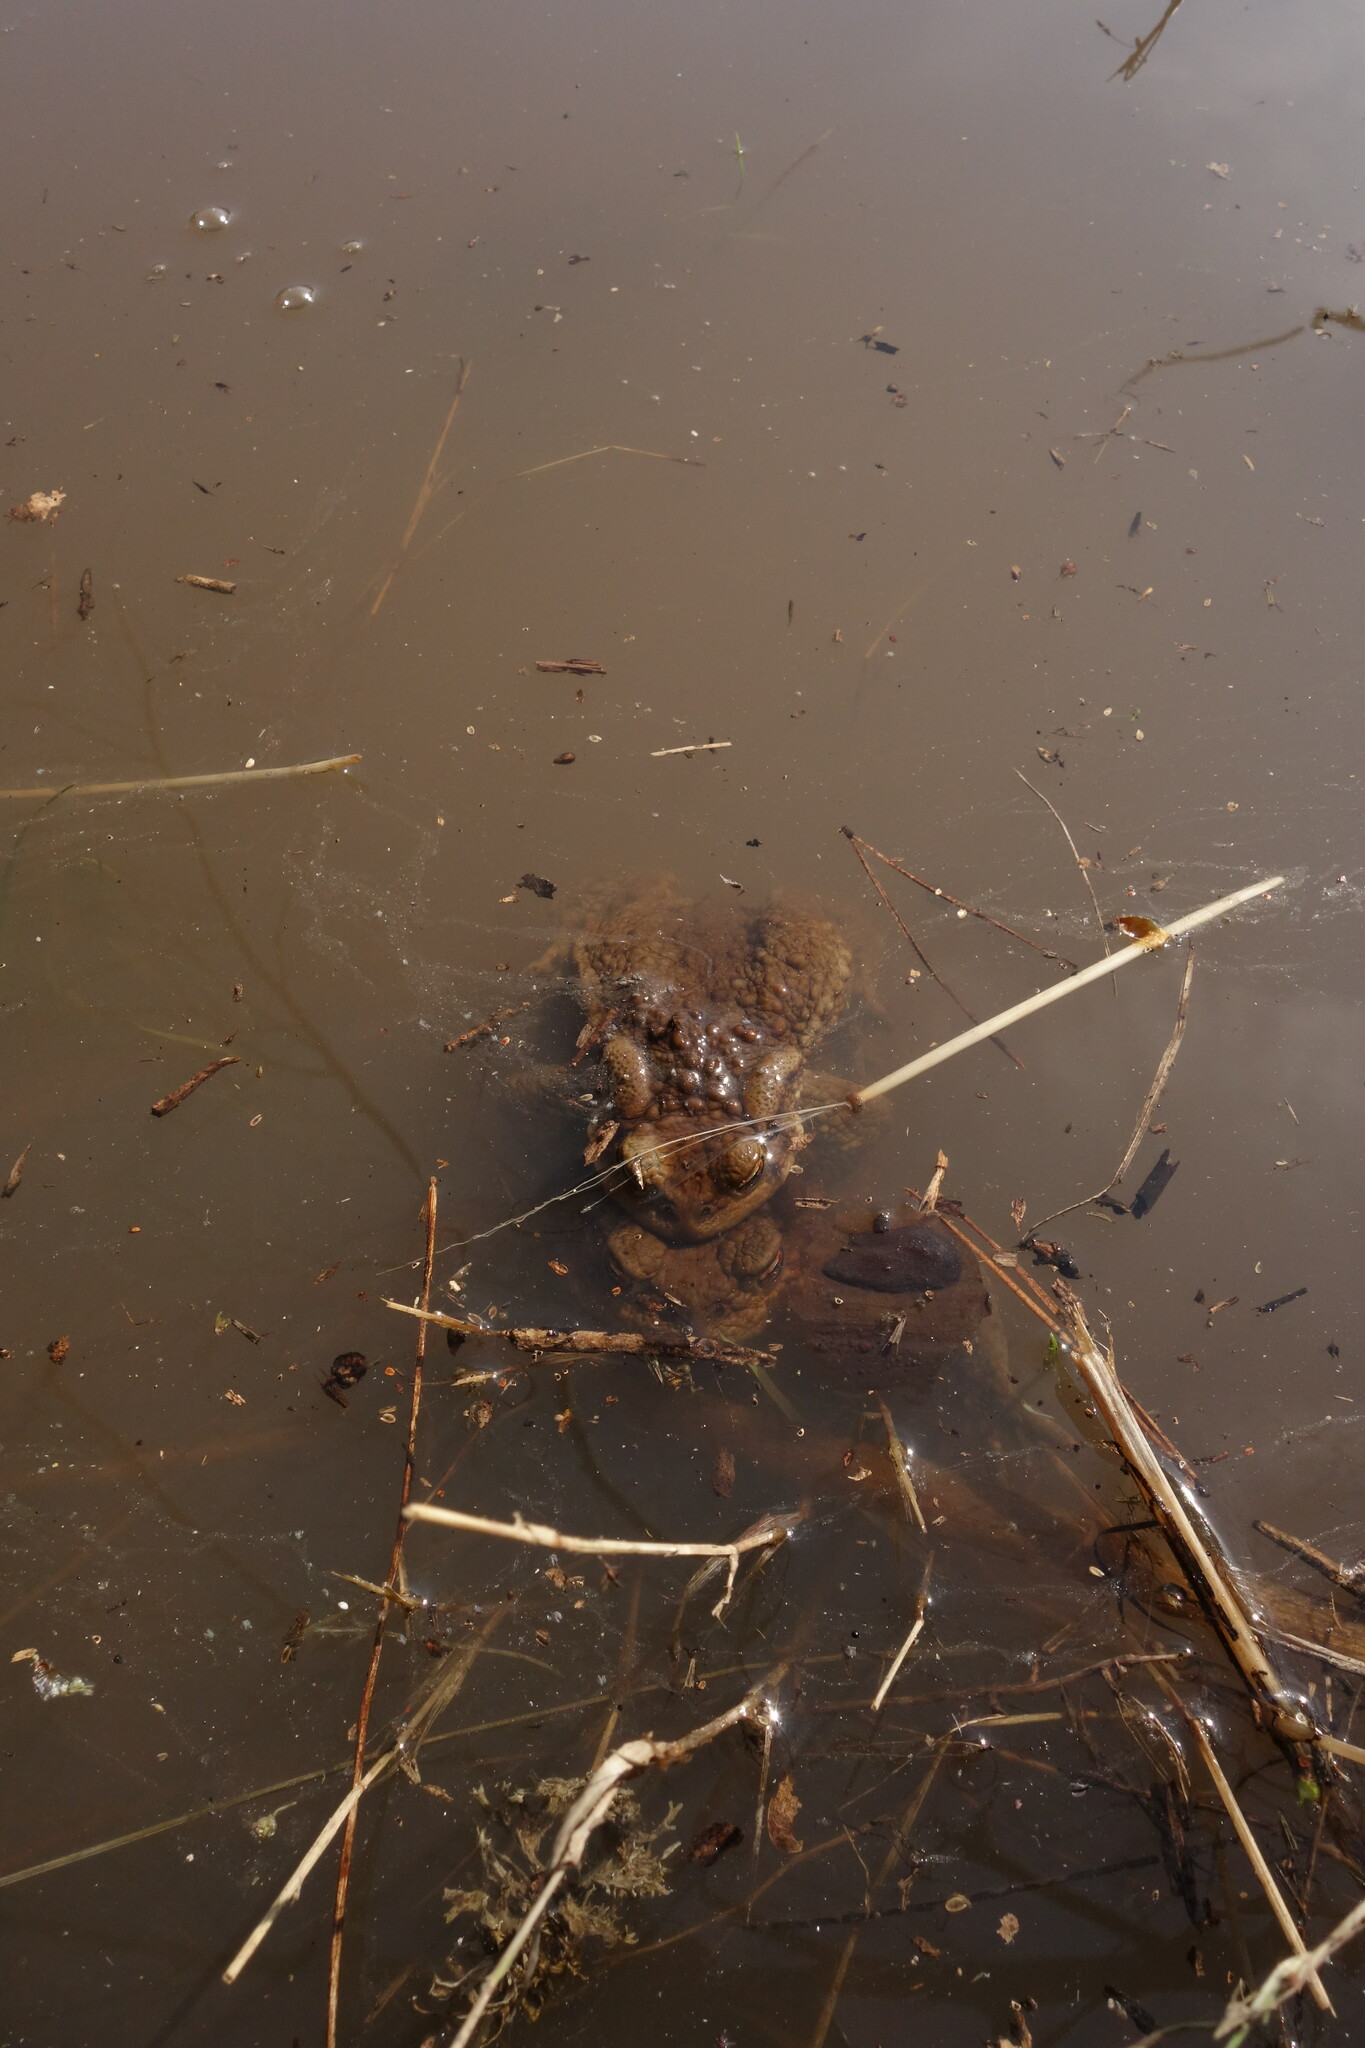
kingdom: Animalia
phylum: Chordata
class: Amphibia
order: Anura
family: Bufonidae
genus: Bufo
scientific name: Bufo bufo
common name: Common toad
